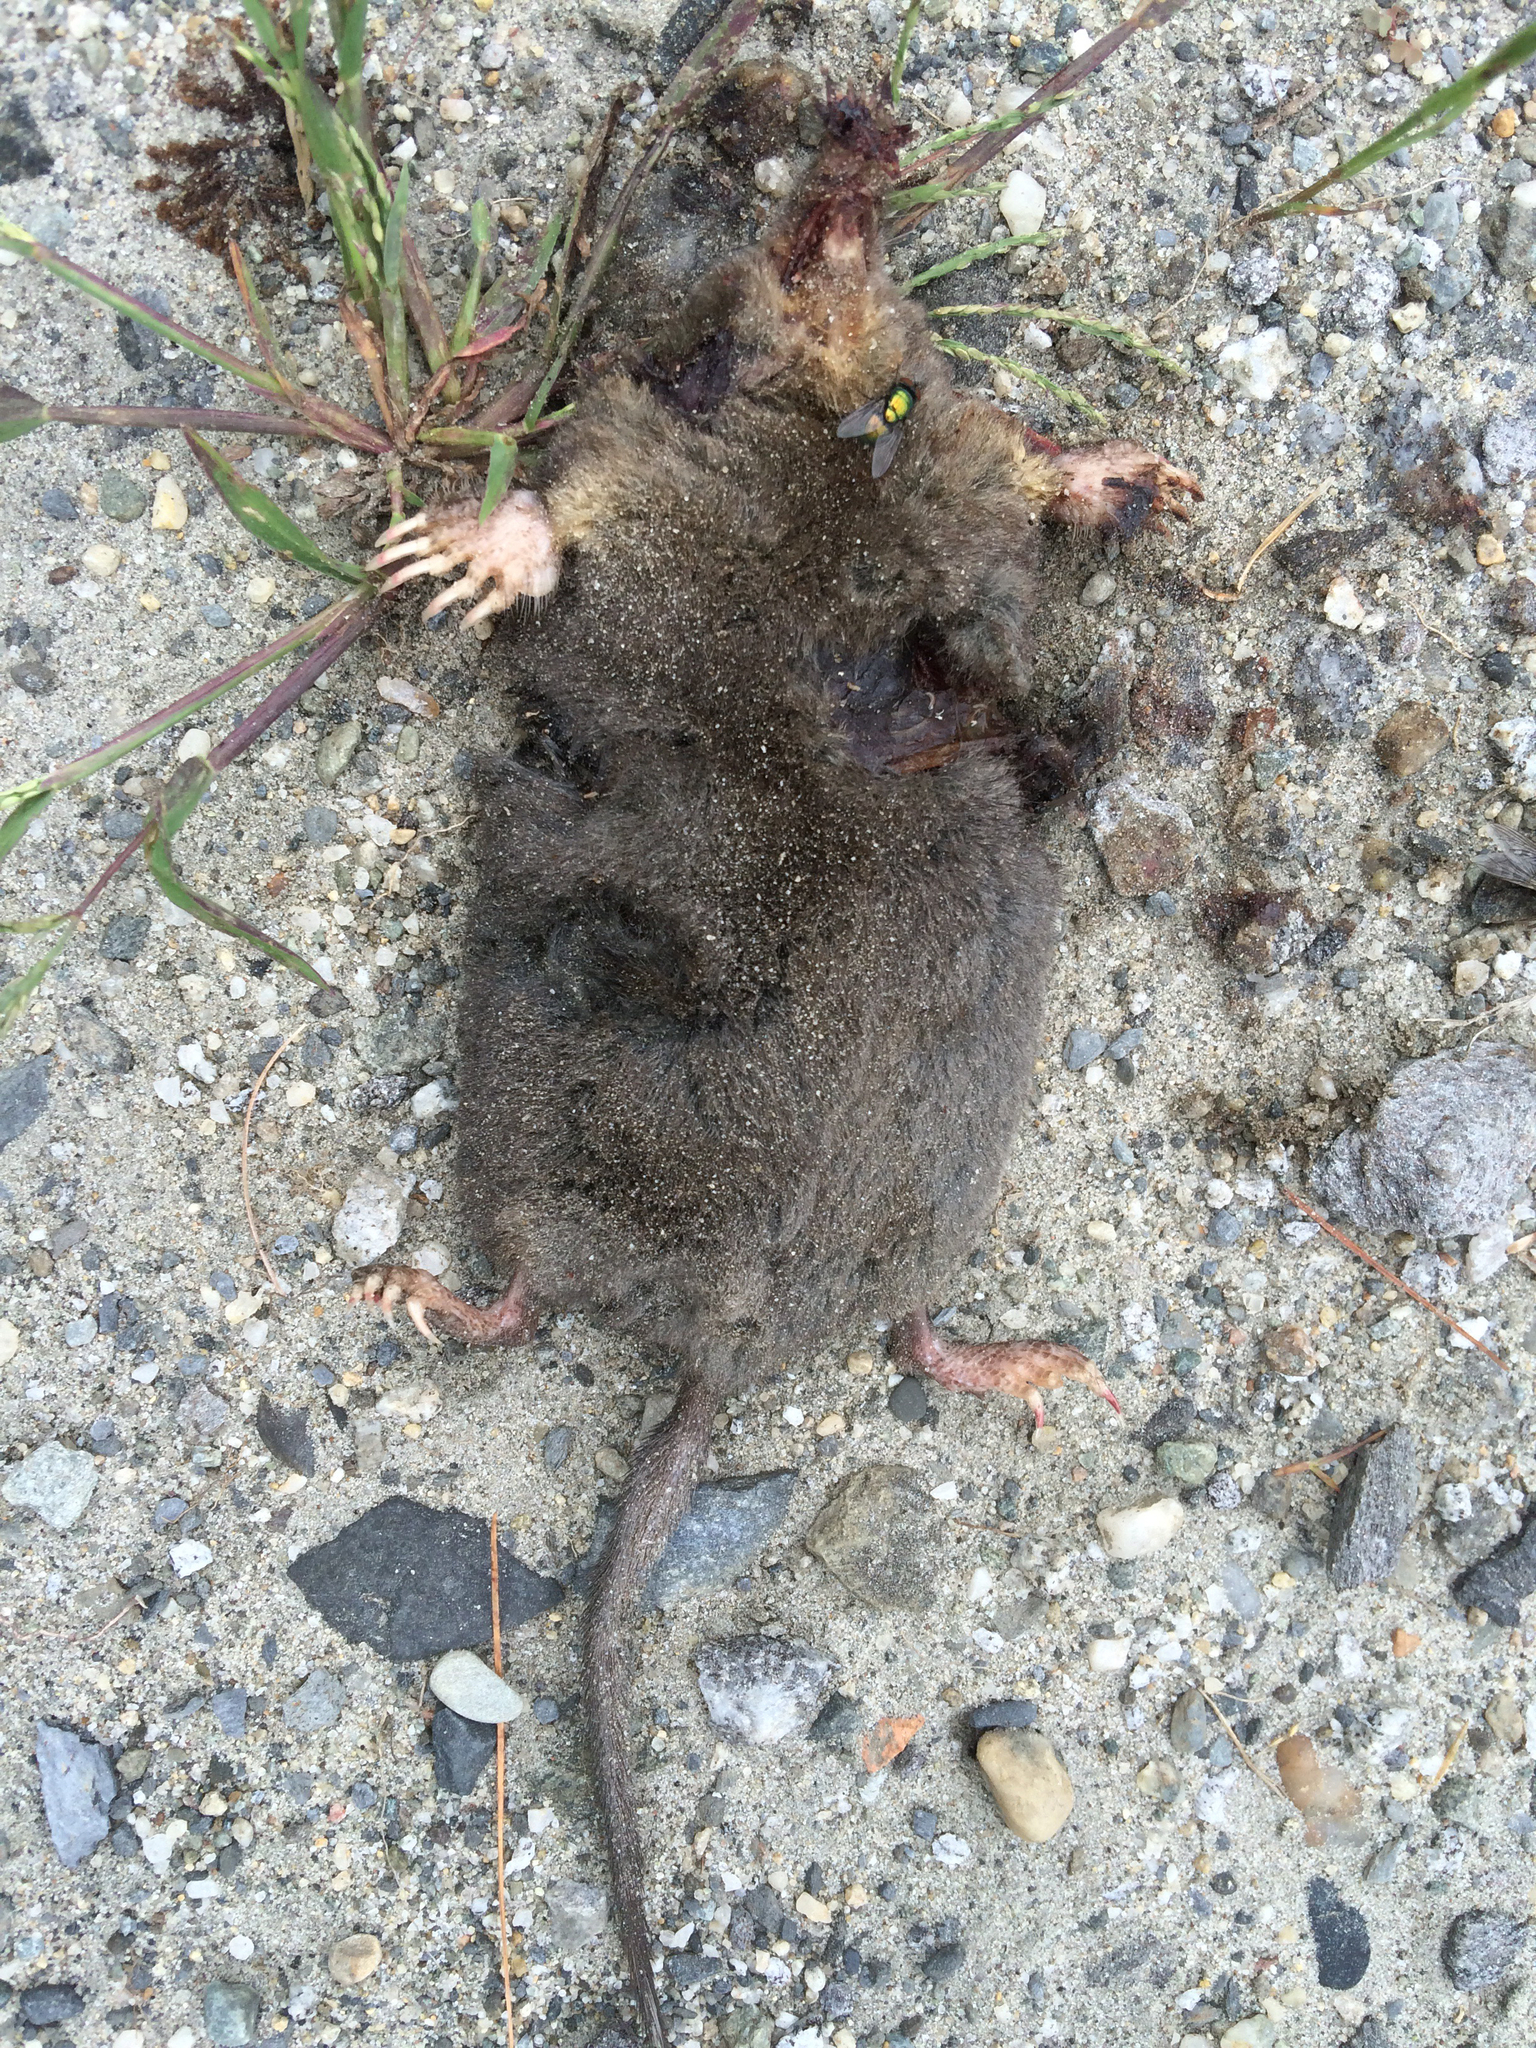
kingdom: Animalia
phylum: Chordata
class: Mammalia
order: Soricomorpha
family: Talpidae
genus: Condylura
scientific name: Condylura cristata
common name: Star-nosed mole
